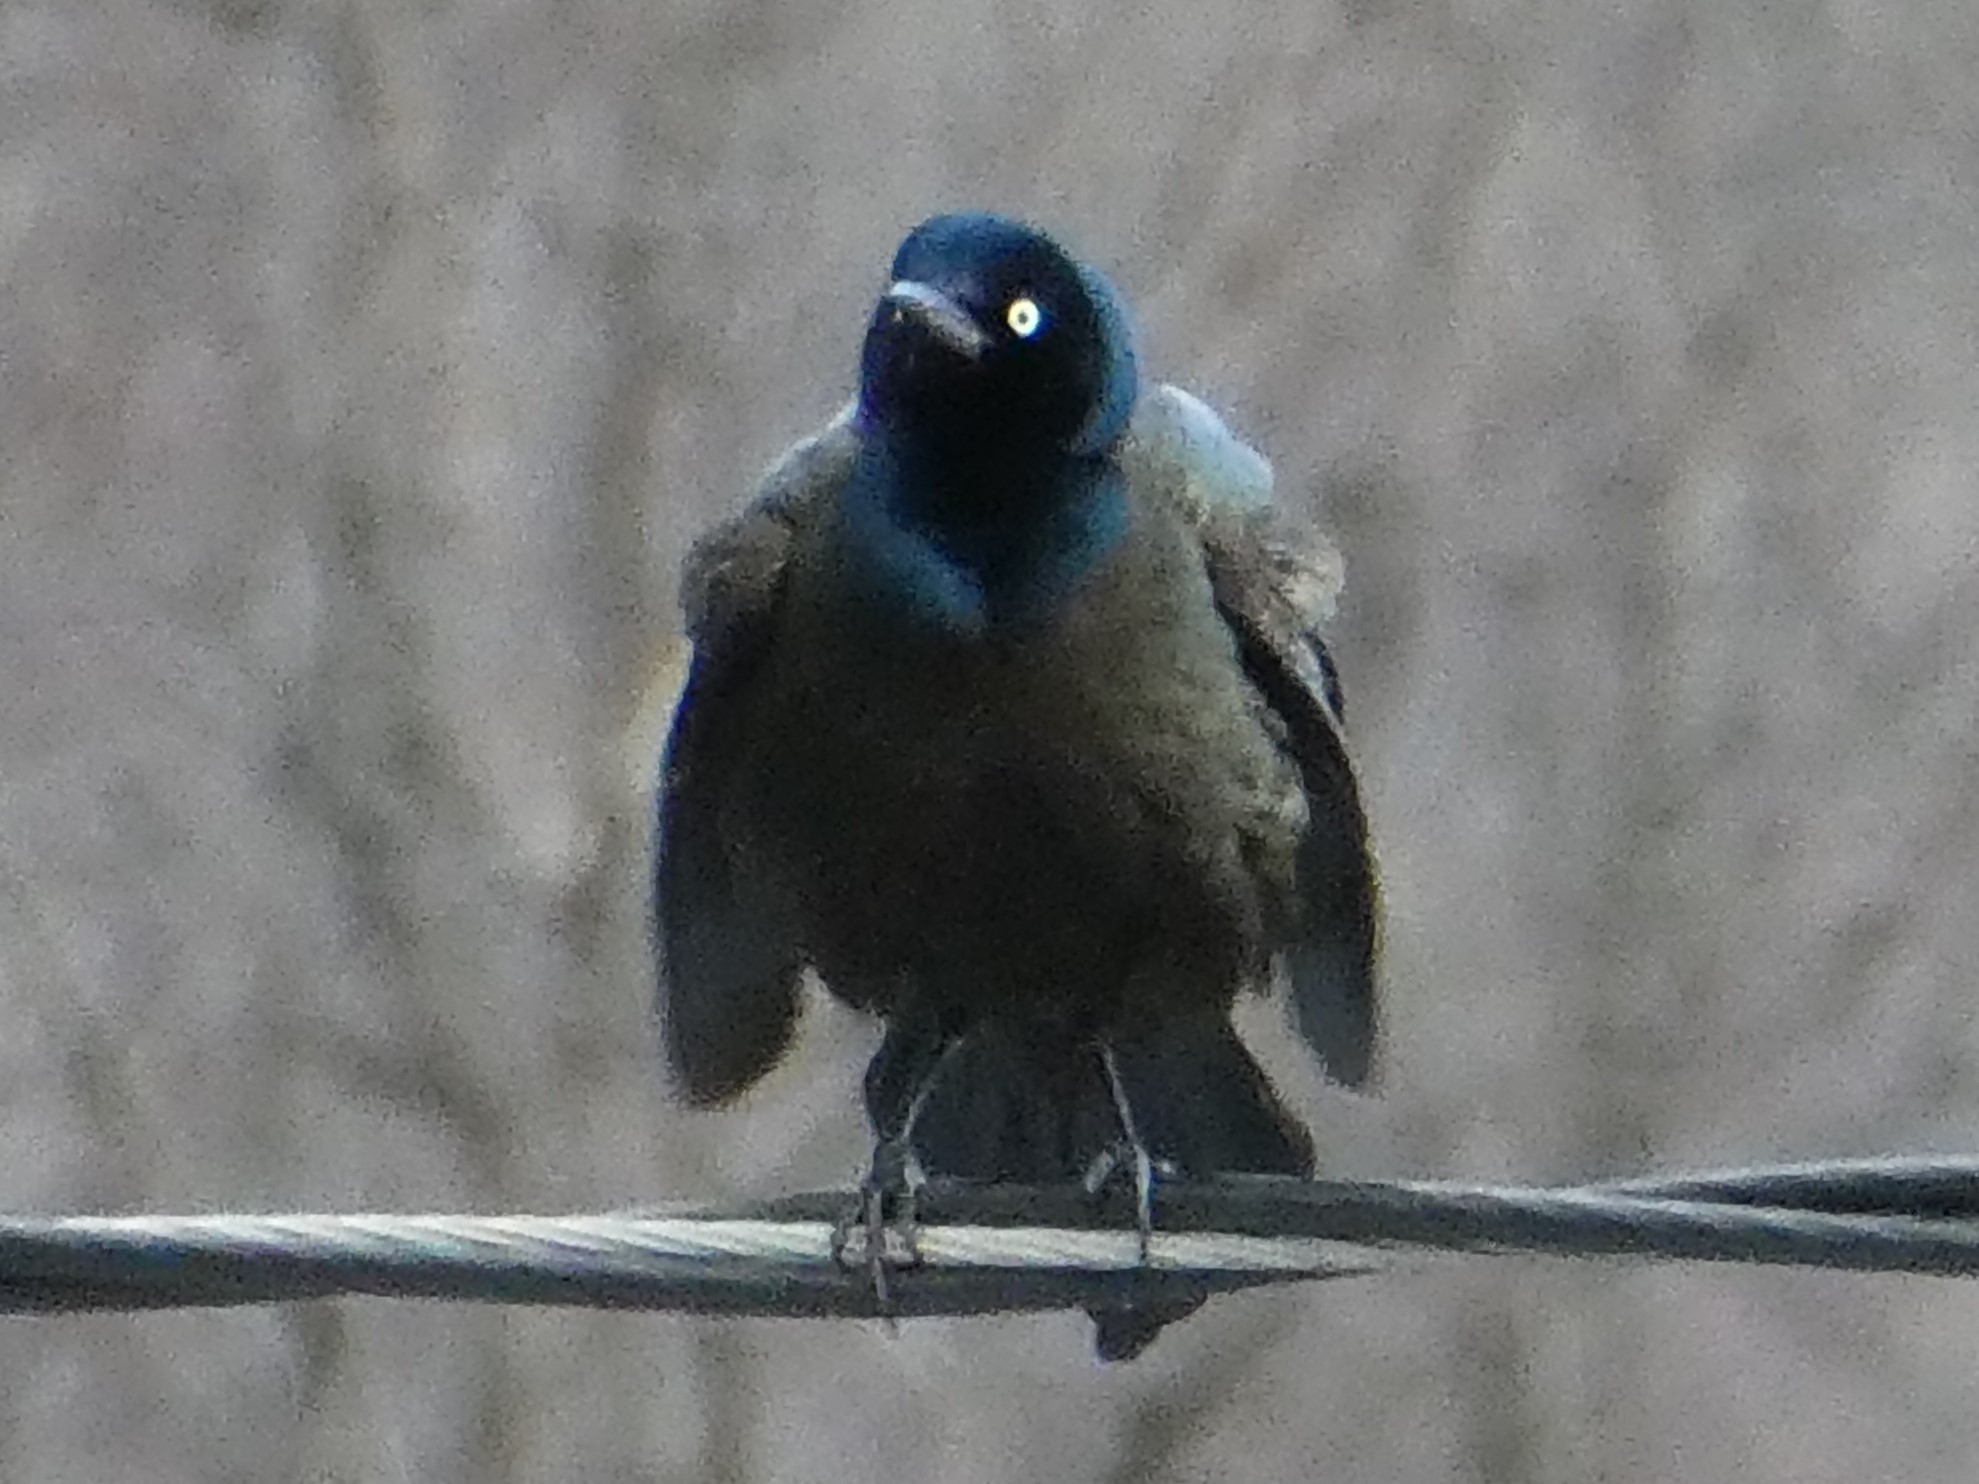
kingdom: Animalia
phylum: Chordata
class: Aves
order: Passeriformes
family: Icteridae
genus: Quiscalus
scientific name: Quiscalus quiscula
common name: Common grackle
